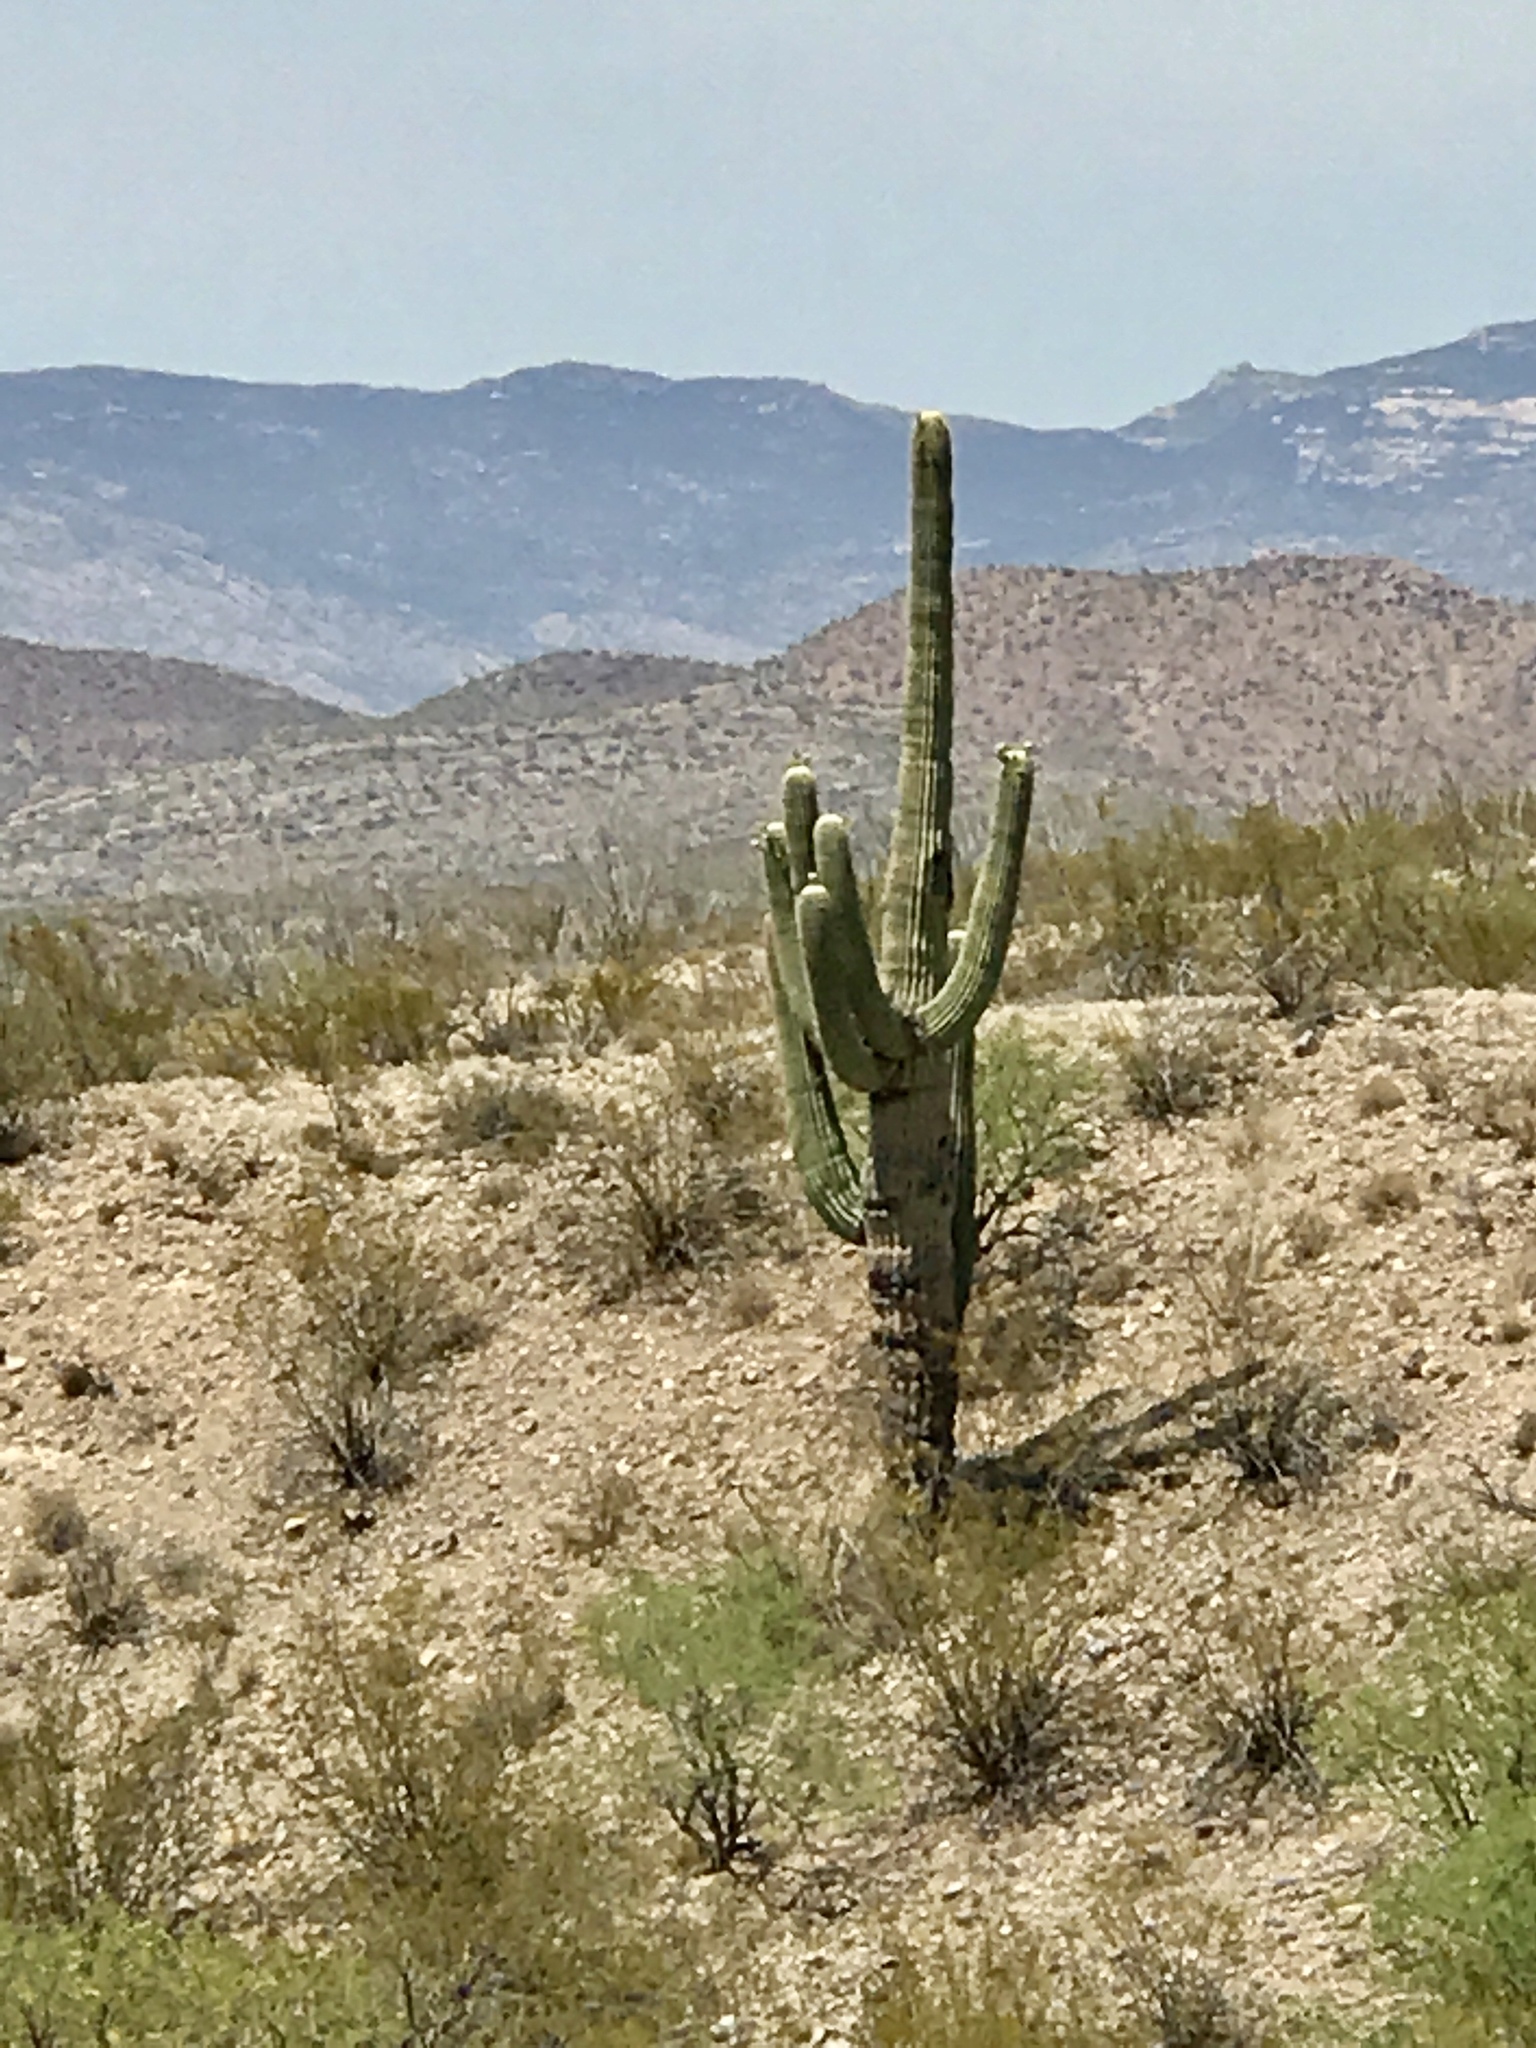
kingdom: Plantae
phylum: Tracheophyta
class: Magnoliopsida
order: Caryophyllales
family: Cactaceae
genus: Carnegiea
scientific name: Carnegiea gigantea
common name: Saguaro
